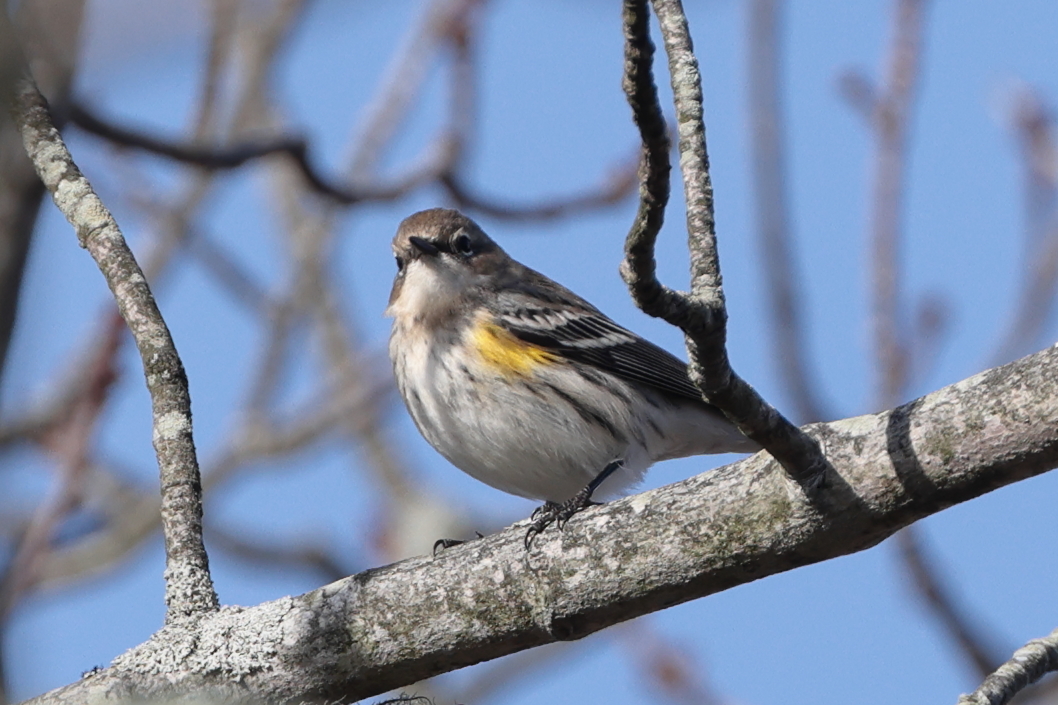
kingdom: Animalia
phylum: Chordata
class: Aves
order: Passeriformes
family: Parulidae
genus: Setophaga
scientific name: Setophaga coronata
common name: Myrtle warbler
